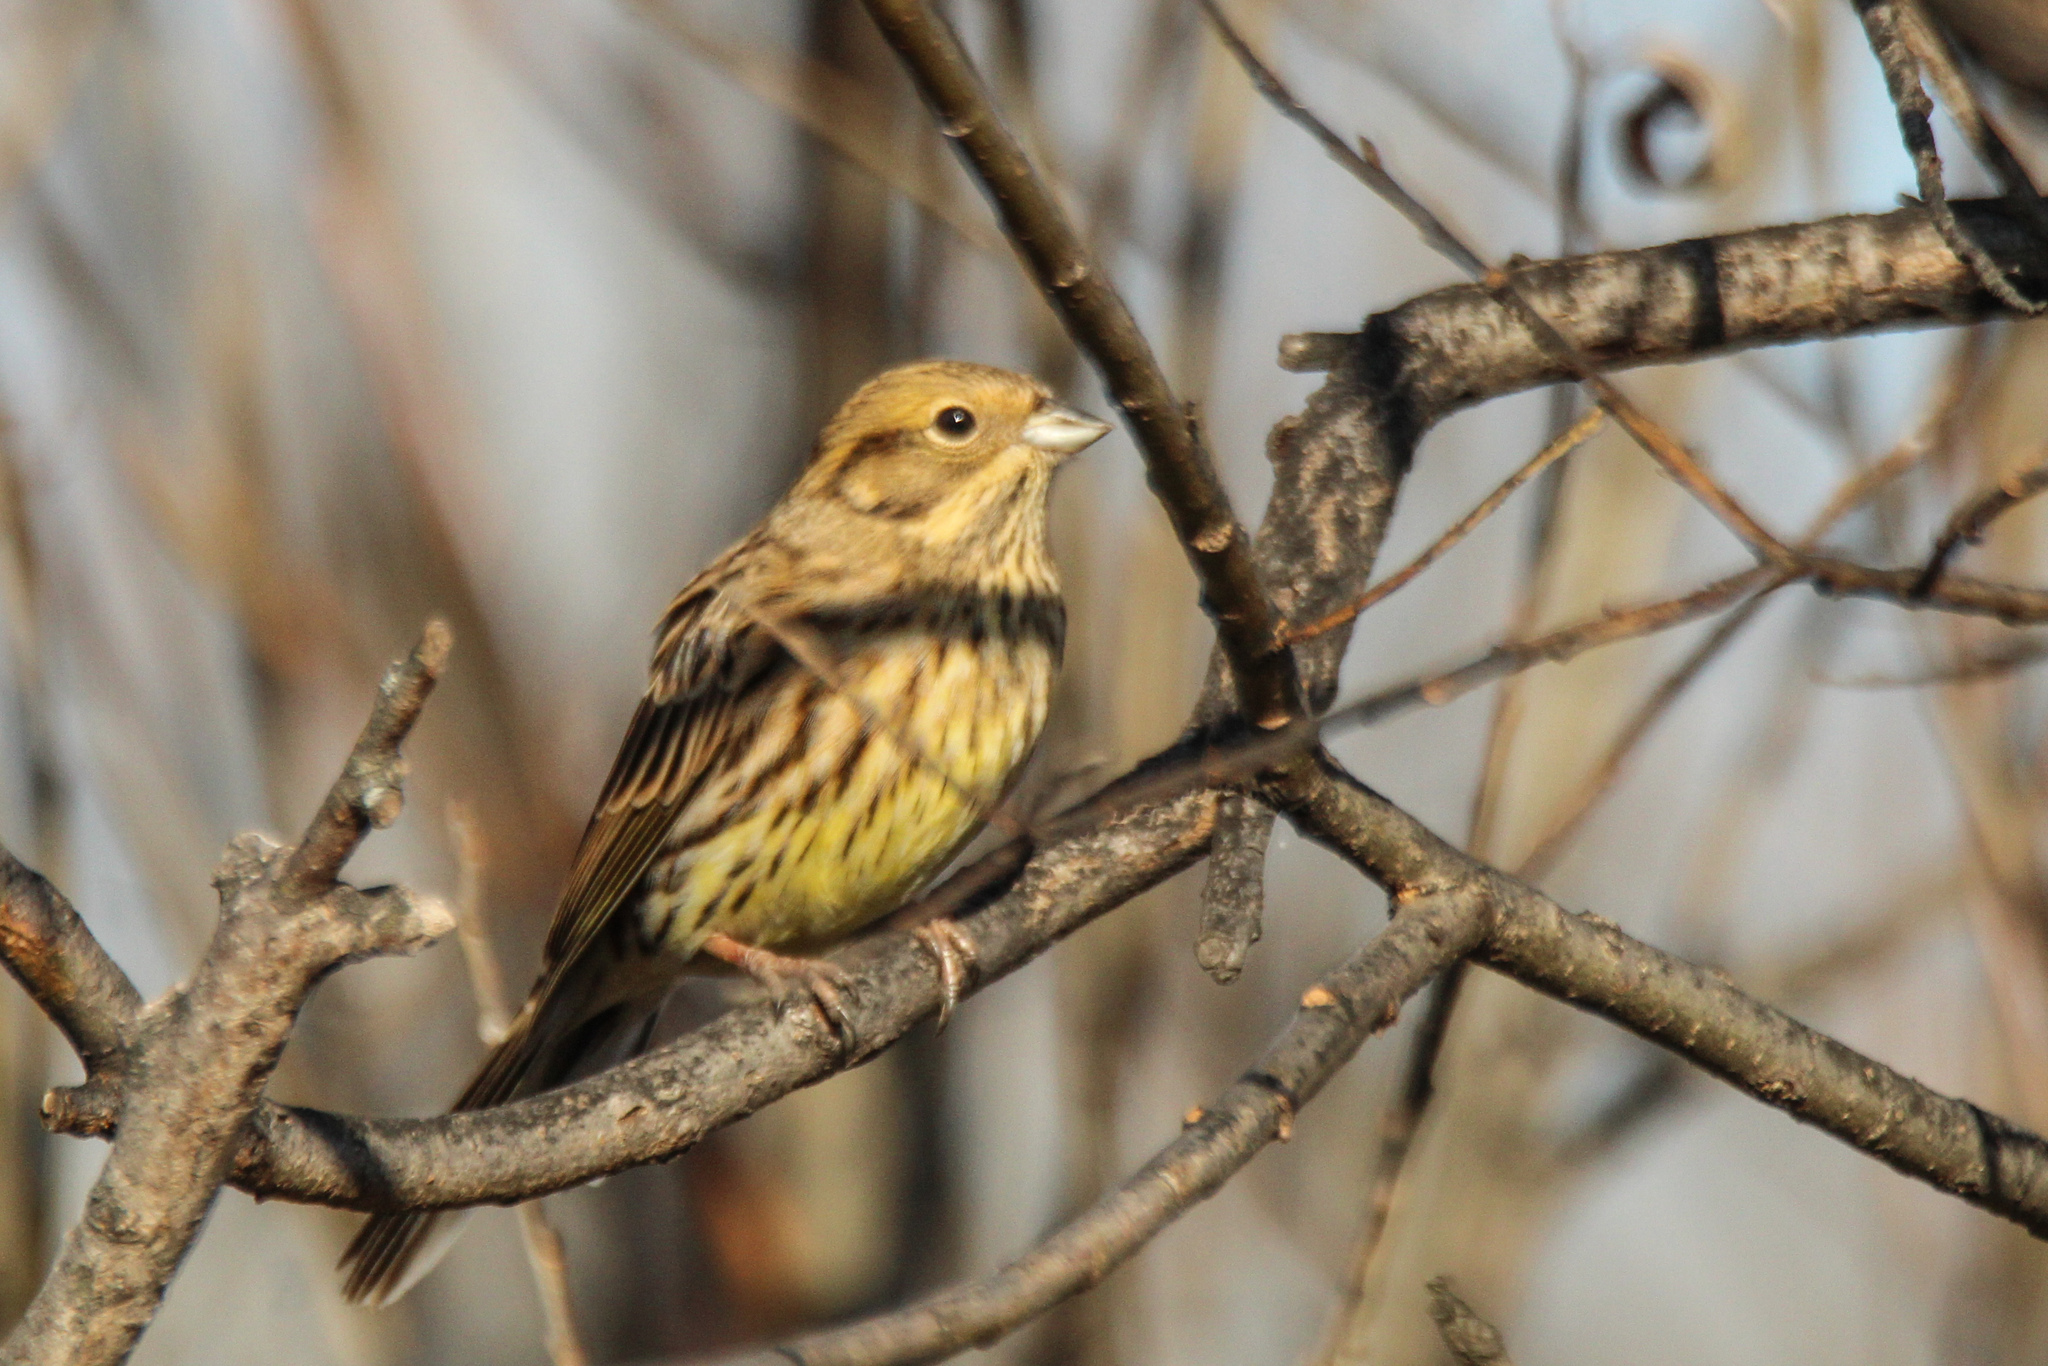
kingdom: Animalia
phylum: Chordata
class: Aves
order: Passeriformes
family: Emberizidae
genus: Emberiza
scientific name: Emberiza citrinella
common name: Yellowhammer
